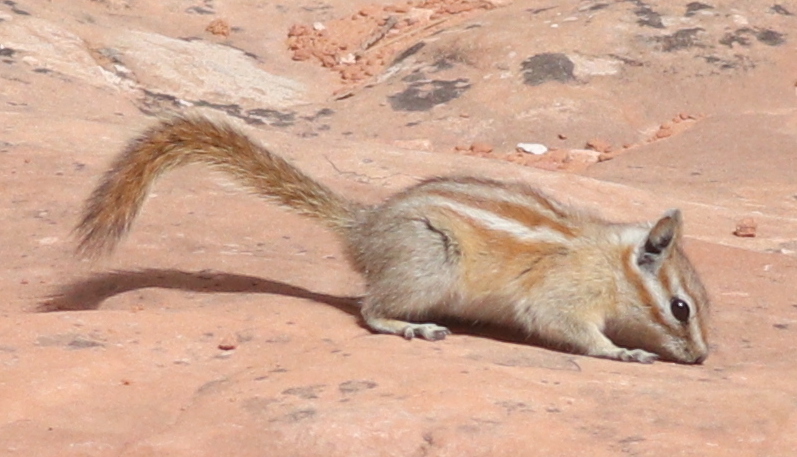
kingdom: Animalia
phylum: Chordata
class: Mammalia
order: Rodentia
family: Sciuridae
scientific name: Sciuridae
